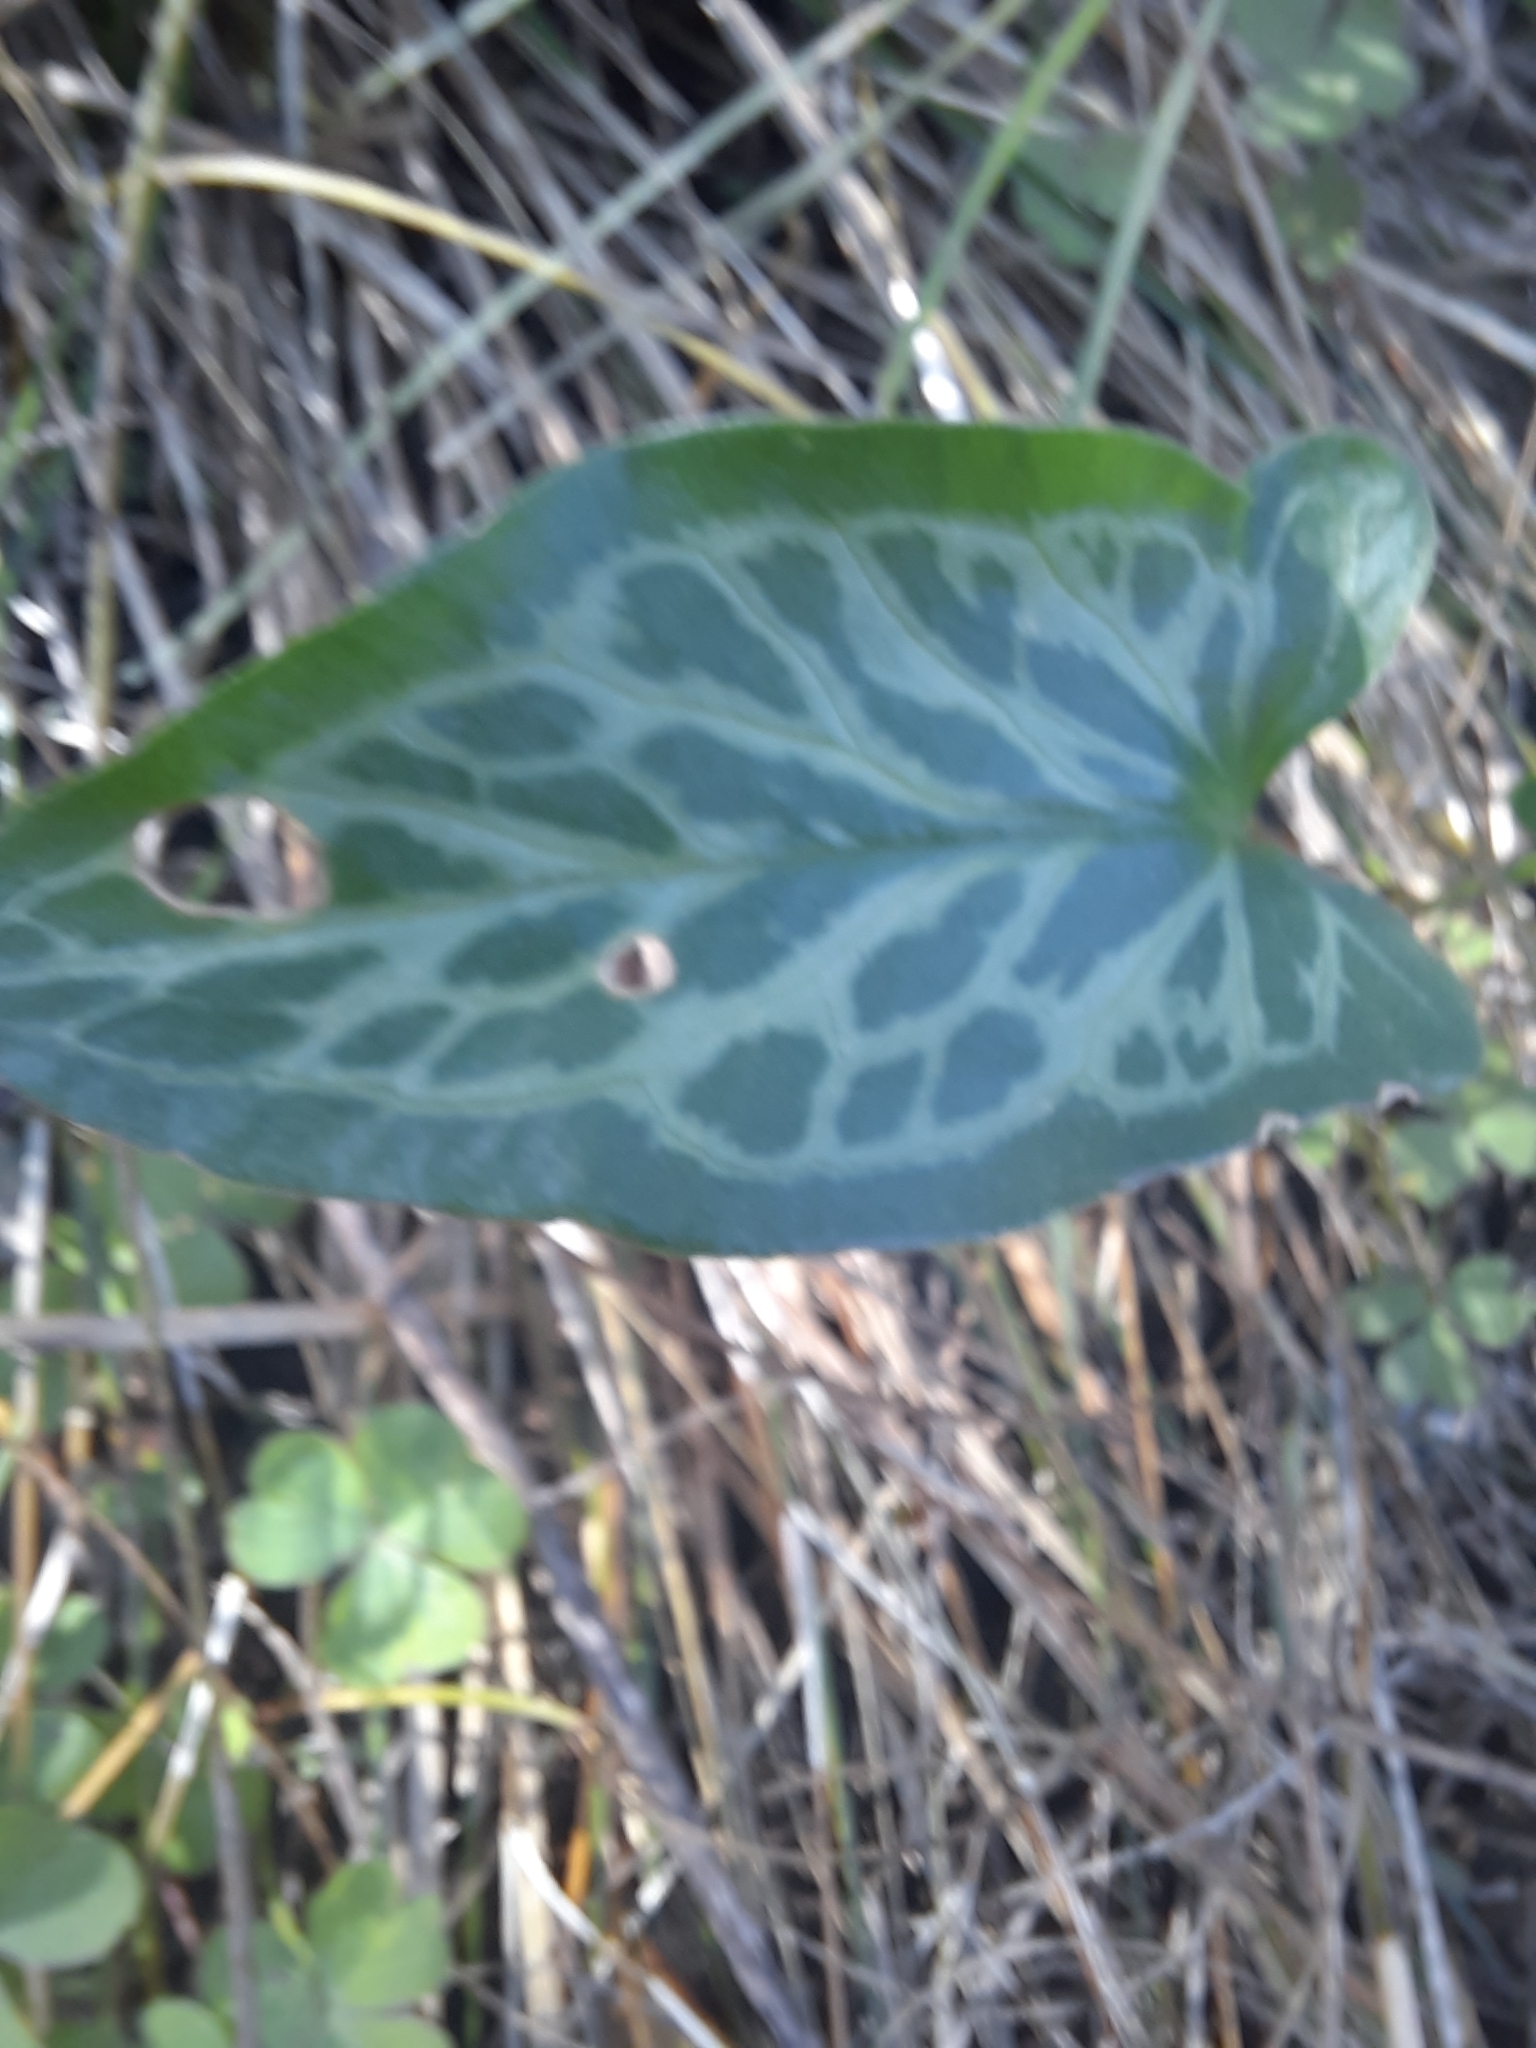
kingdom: Plantae
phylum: Tracheophyta
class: Liliopsida
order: Alismatales
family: Araceae
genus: Arum
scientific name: Arum italicum
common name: Italian lords-and-ladies
